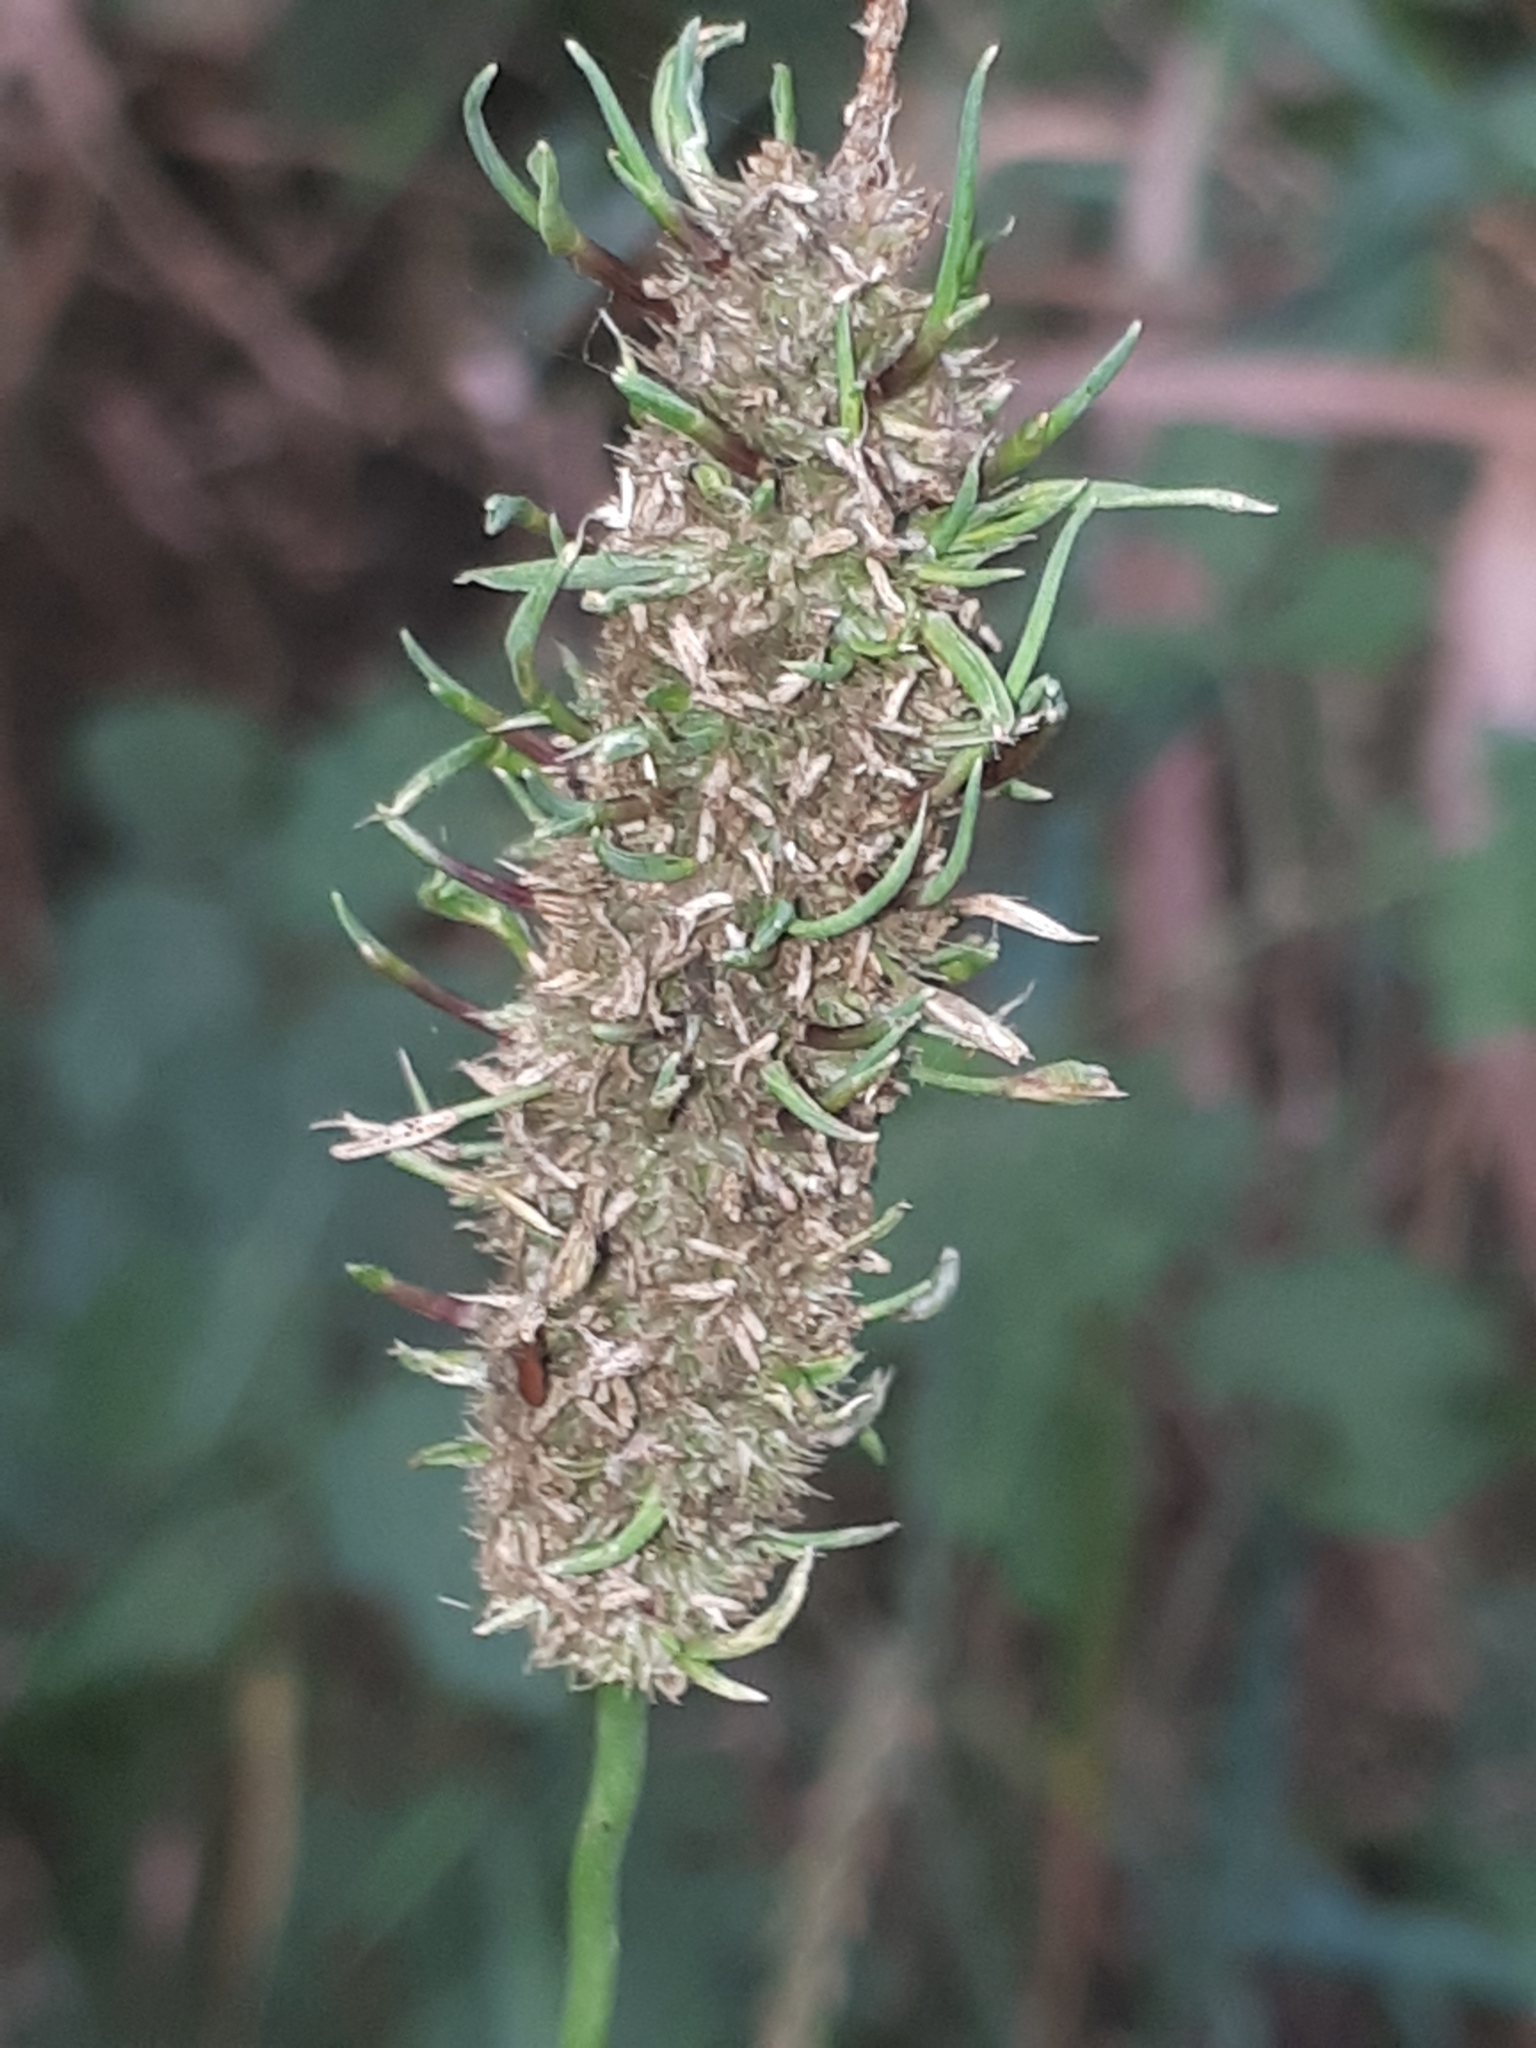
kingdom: Animalia
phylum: Arthropoda
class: Arachnida
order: Trombidiformes
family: Eriophyidae
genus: Aceria
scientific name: Aceria cornuta
